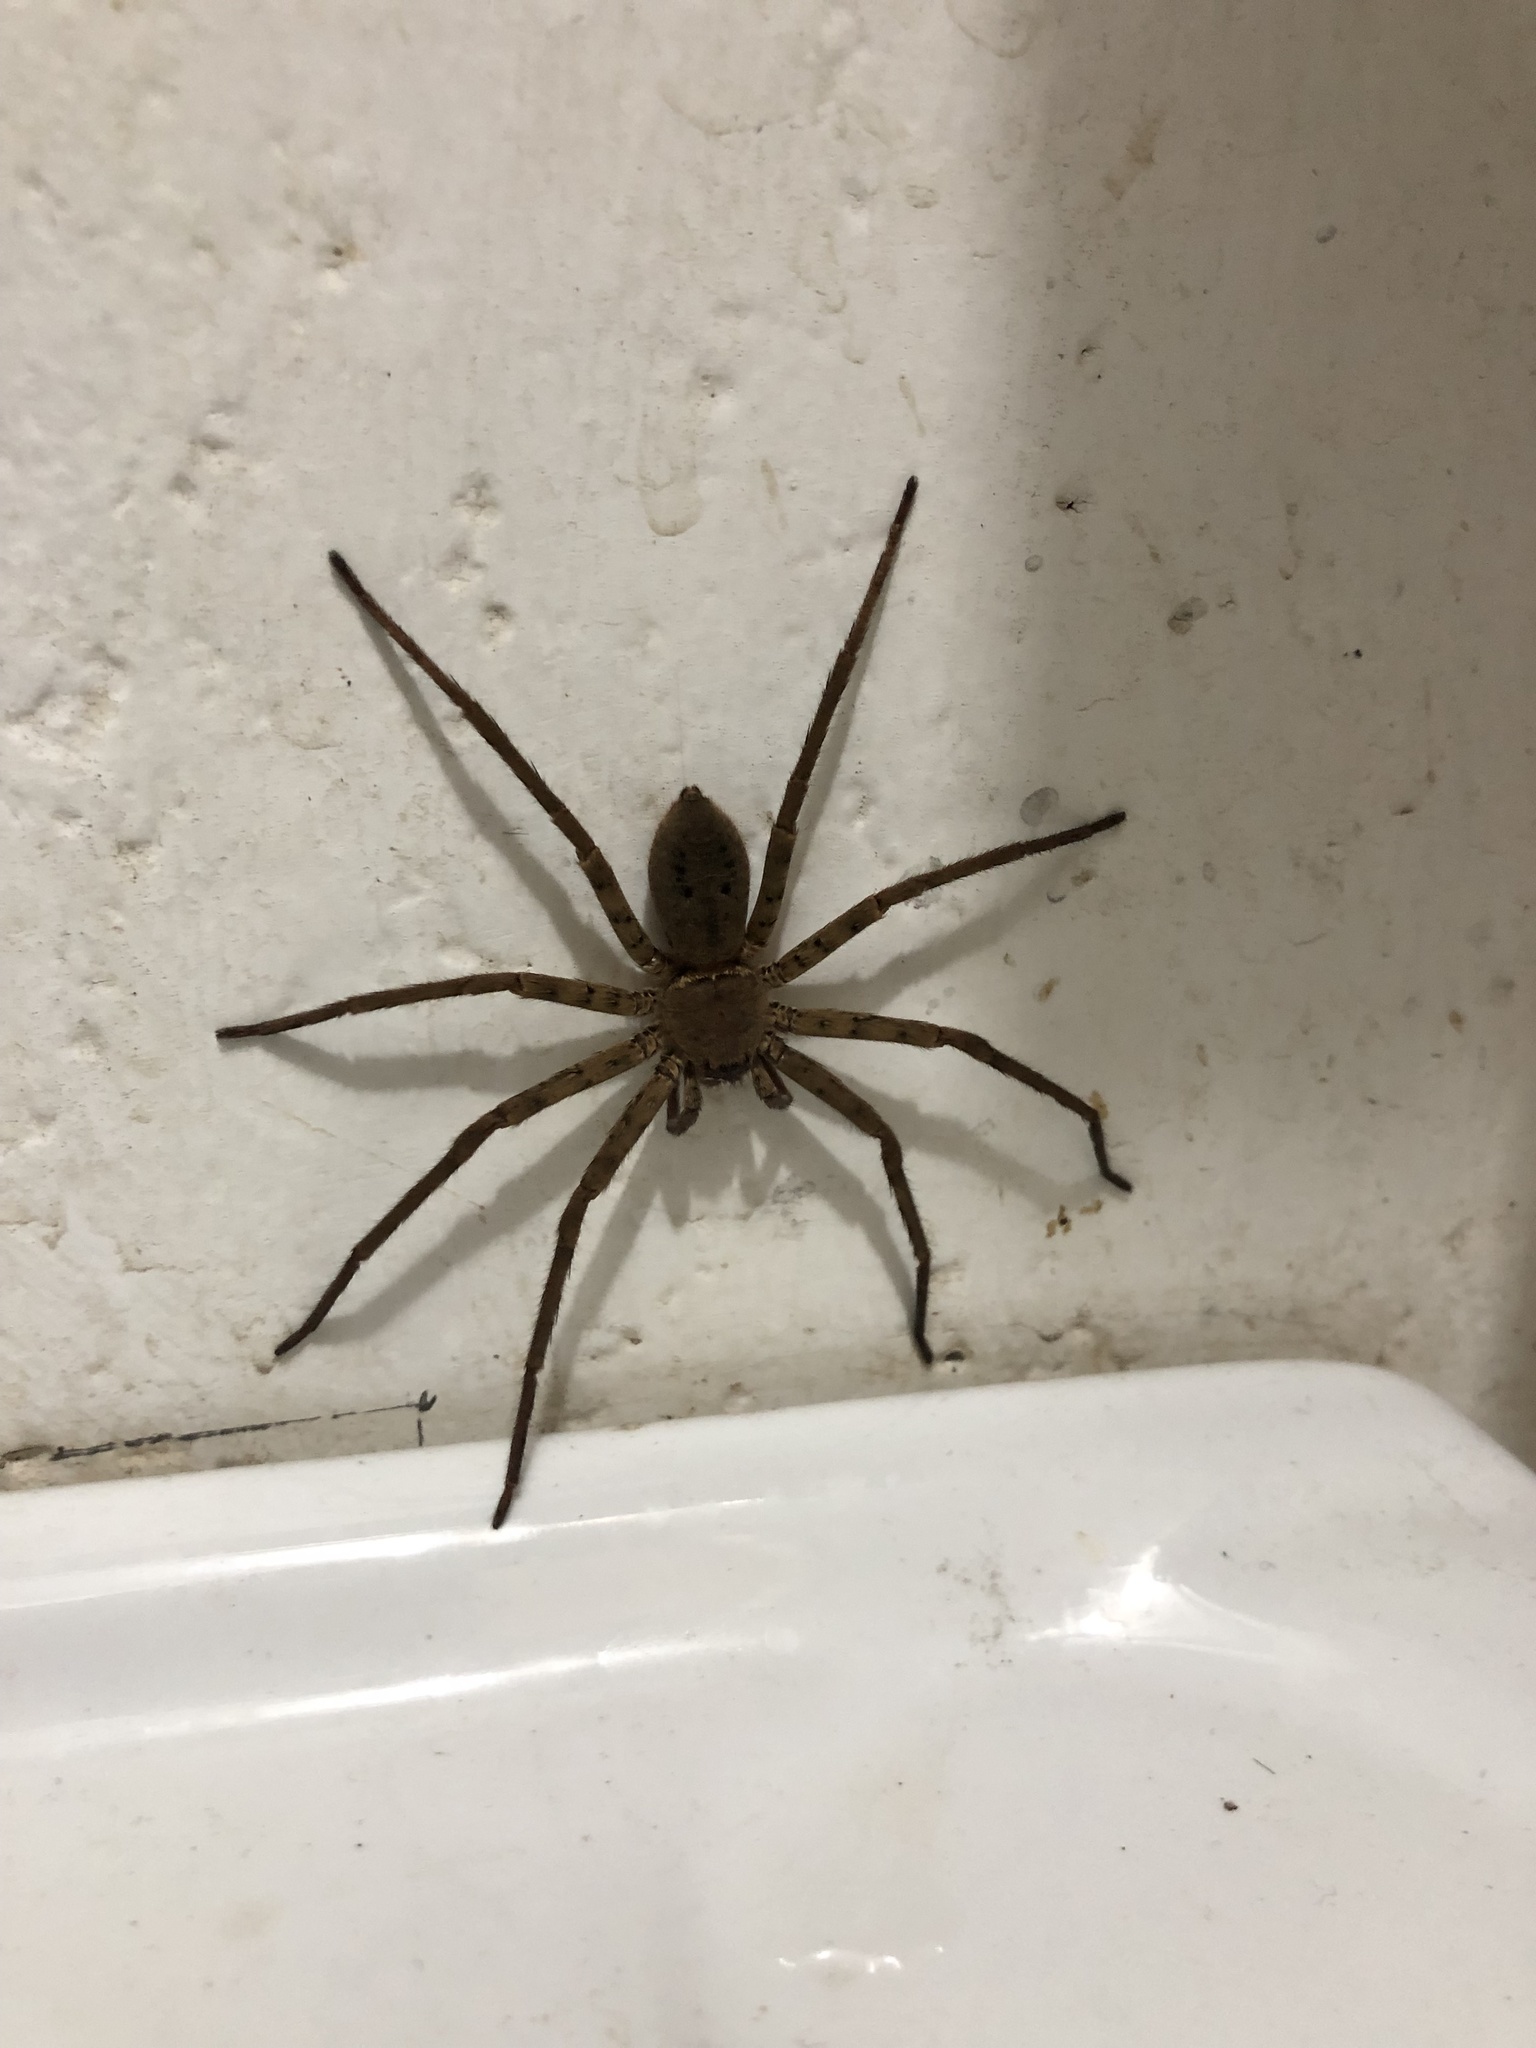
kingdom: Animalia
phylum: Arthropoda
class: Arachnida
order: Araneae
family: Sparassidae
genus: Heteropoda
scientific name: Heteropoda venatoria
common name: Huntsman spider
